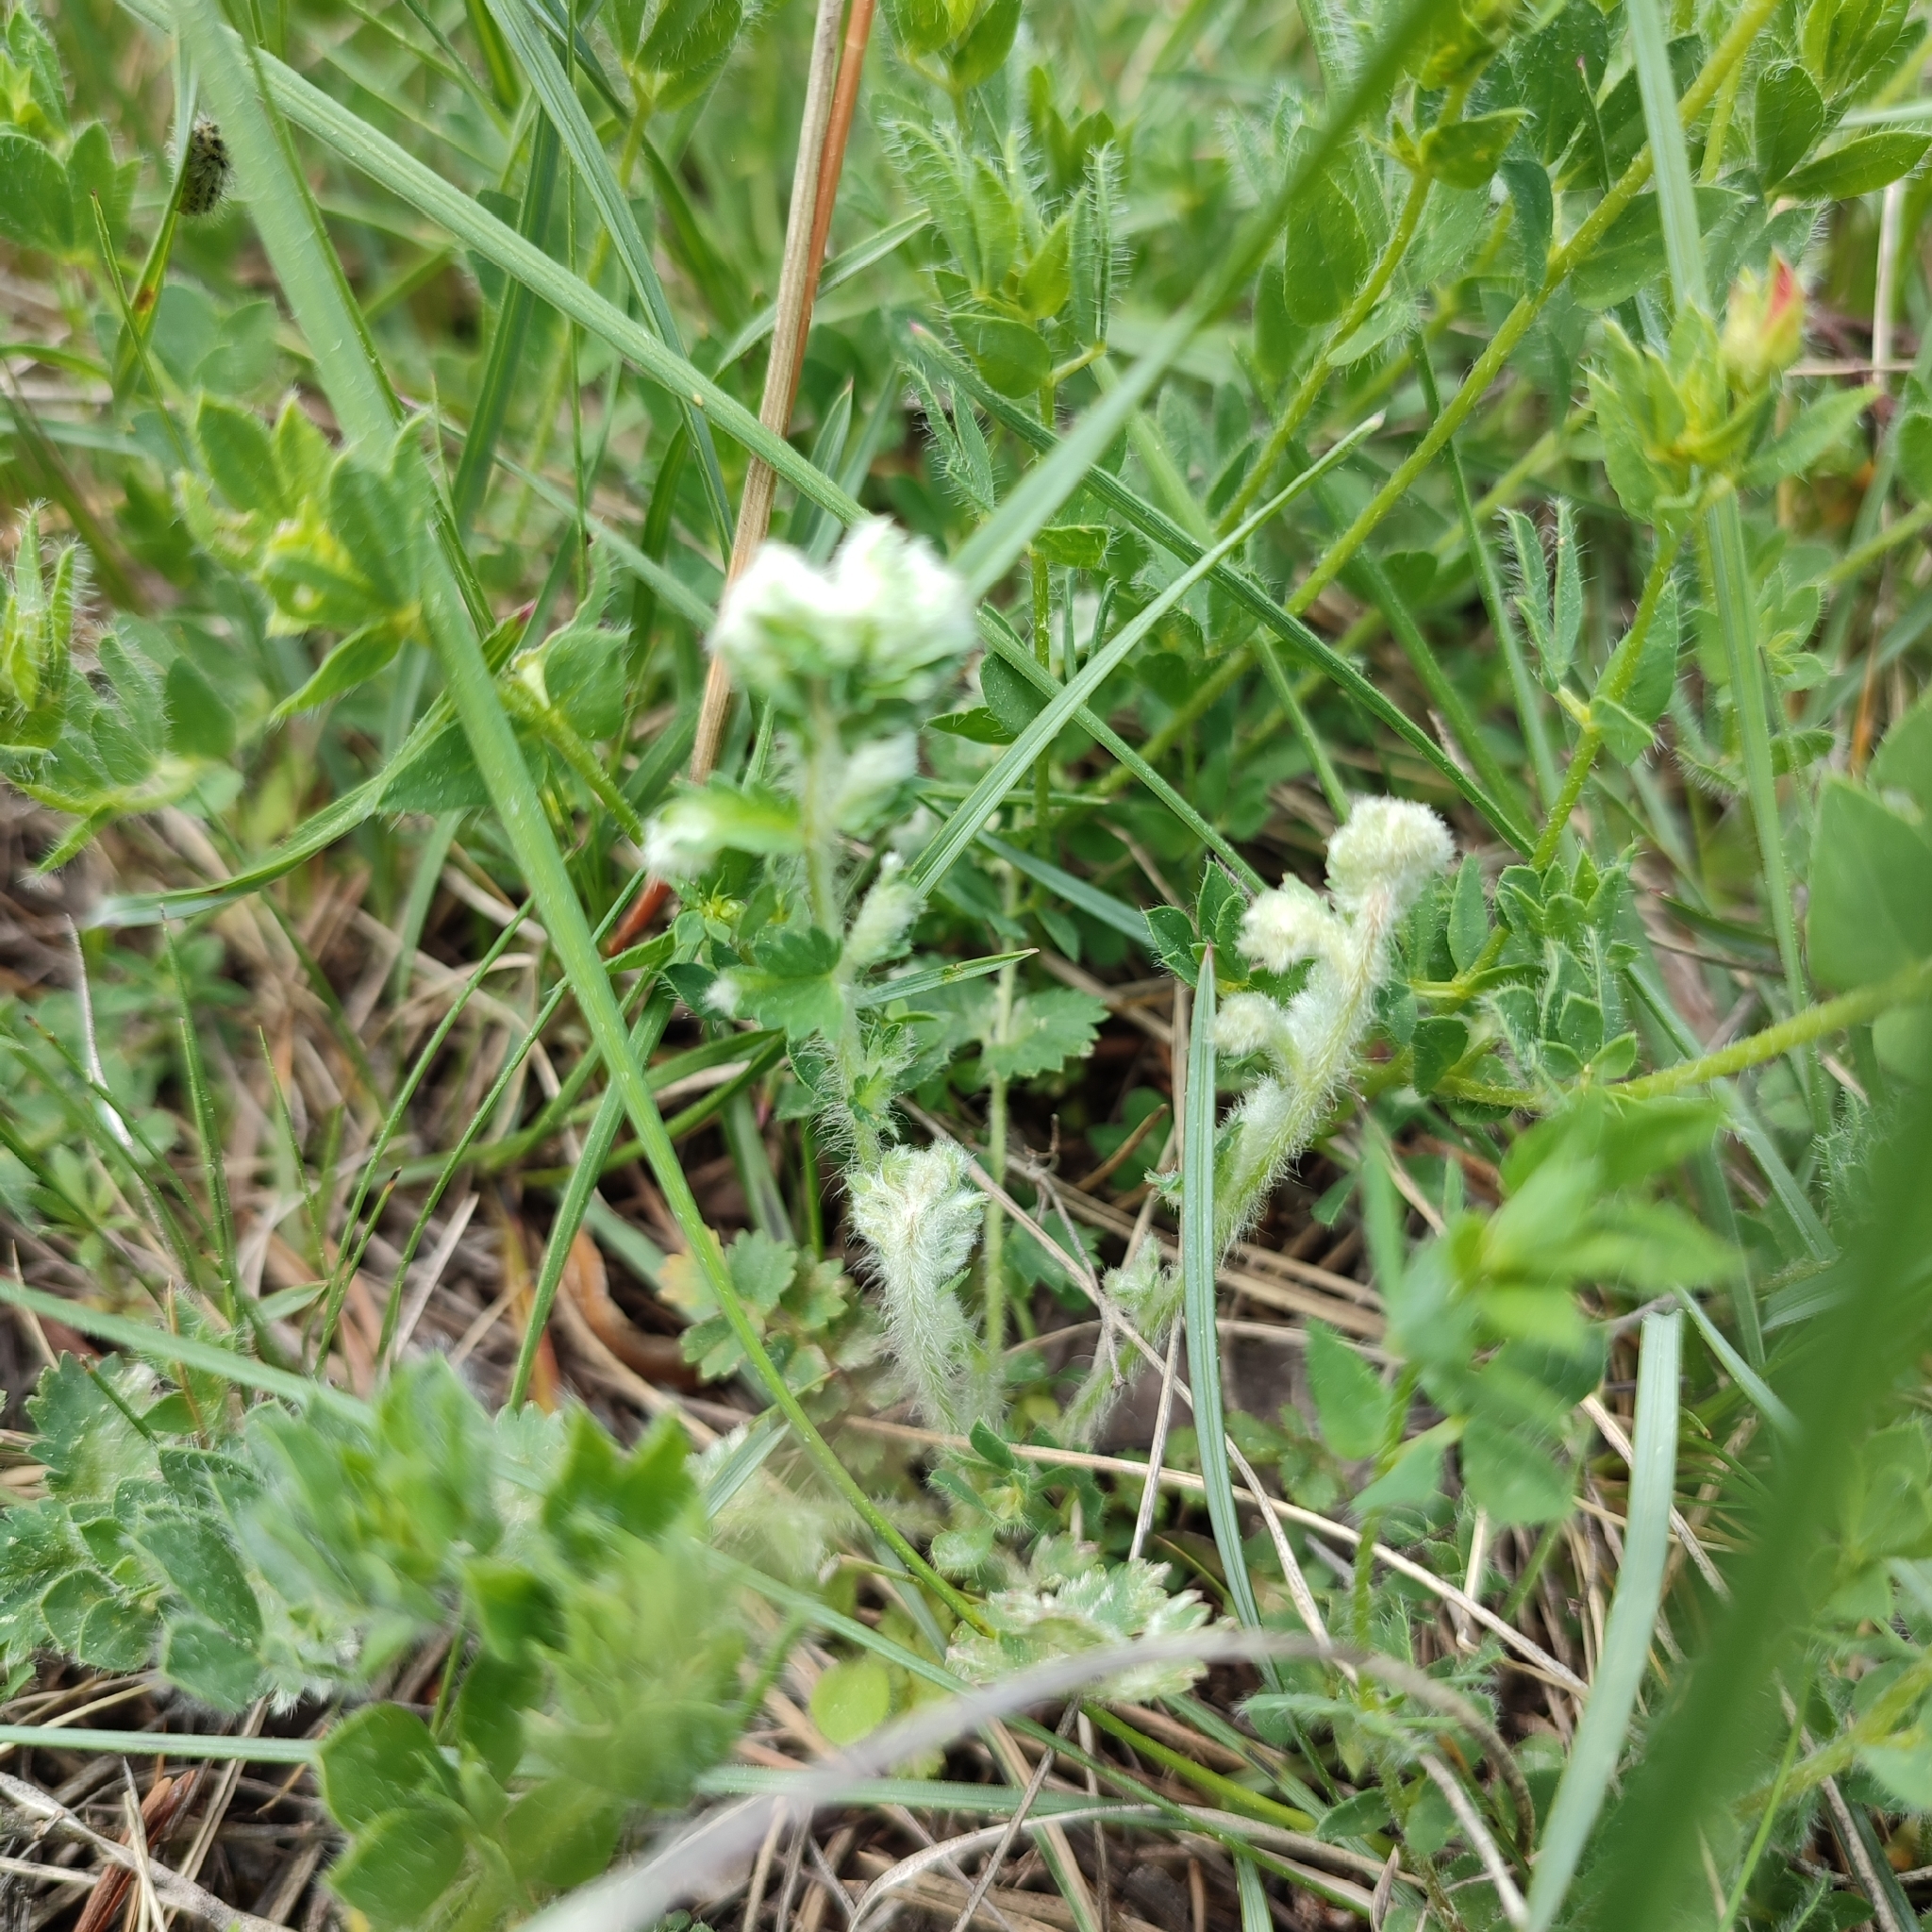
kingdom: Animalia
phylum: Arthropoda
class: Arachnida
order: Trombidiformes
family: Eriophyidae
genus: Aceria
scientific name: Aceria sanguisorbae
